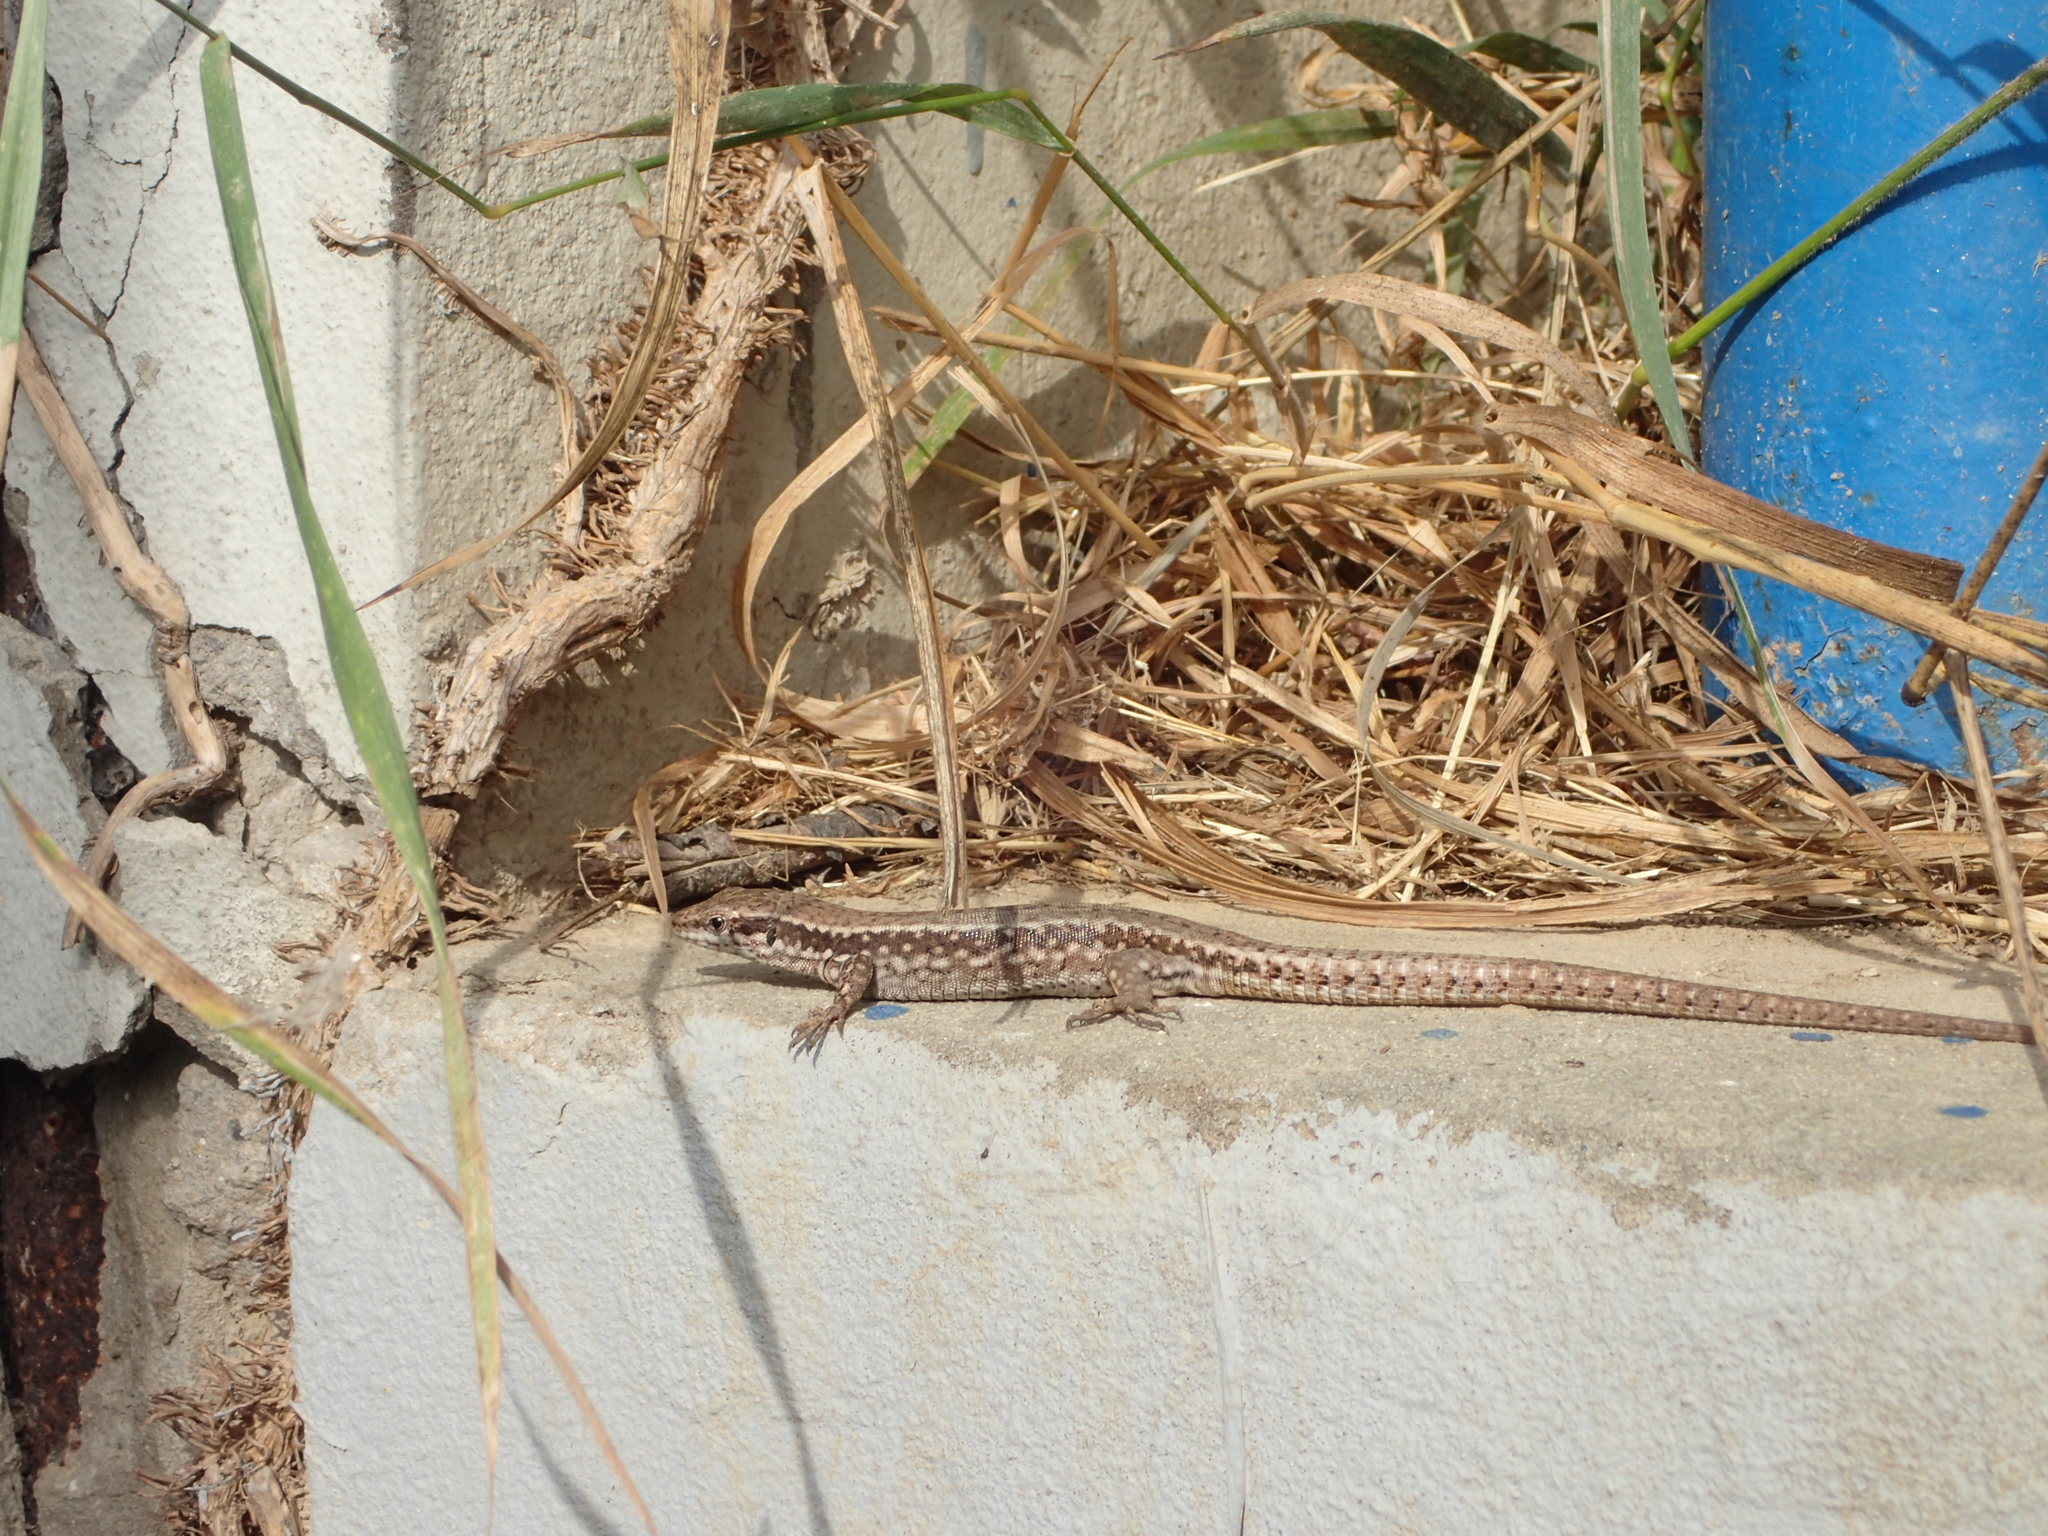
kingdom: Animalia
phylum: Chordata
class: Squamata
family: Lacertidae
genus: Podarcis
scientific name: Podarcis muralis
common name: Common wall lizard
